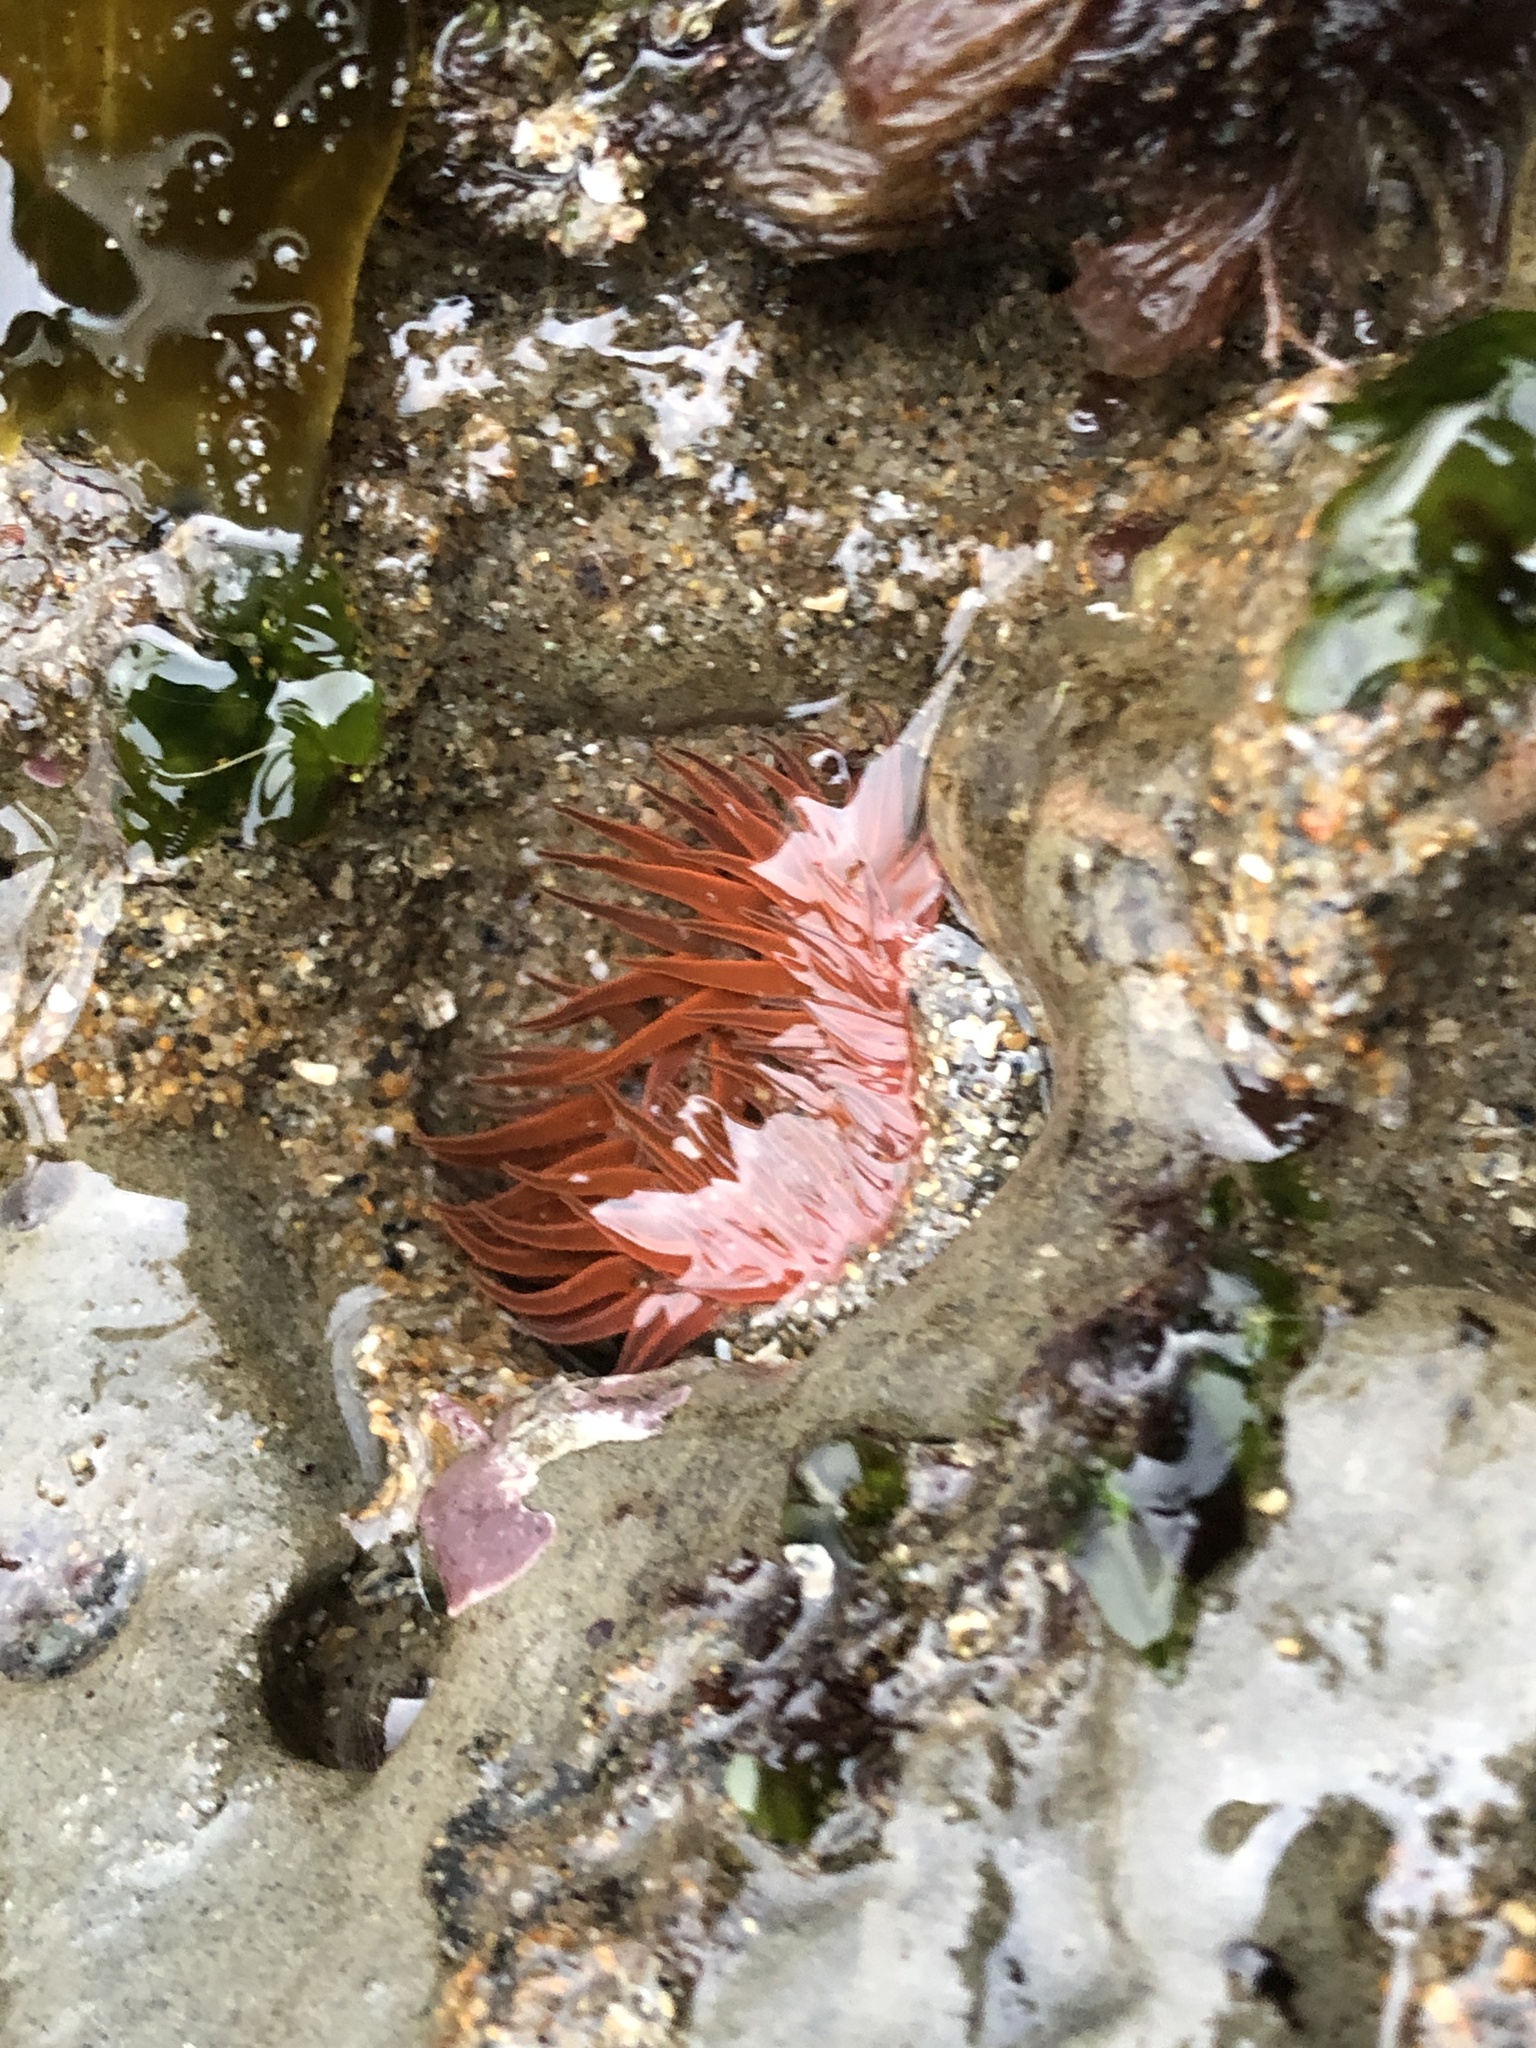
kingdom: Animalia
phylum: Cnidaria
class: Anthozoa
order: Actiniaria
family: Actiniidae
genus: Anthopleura
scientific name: Anthopleura artemisia
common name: Buried sea anemone
